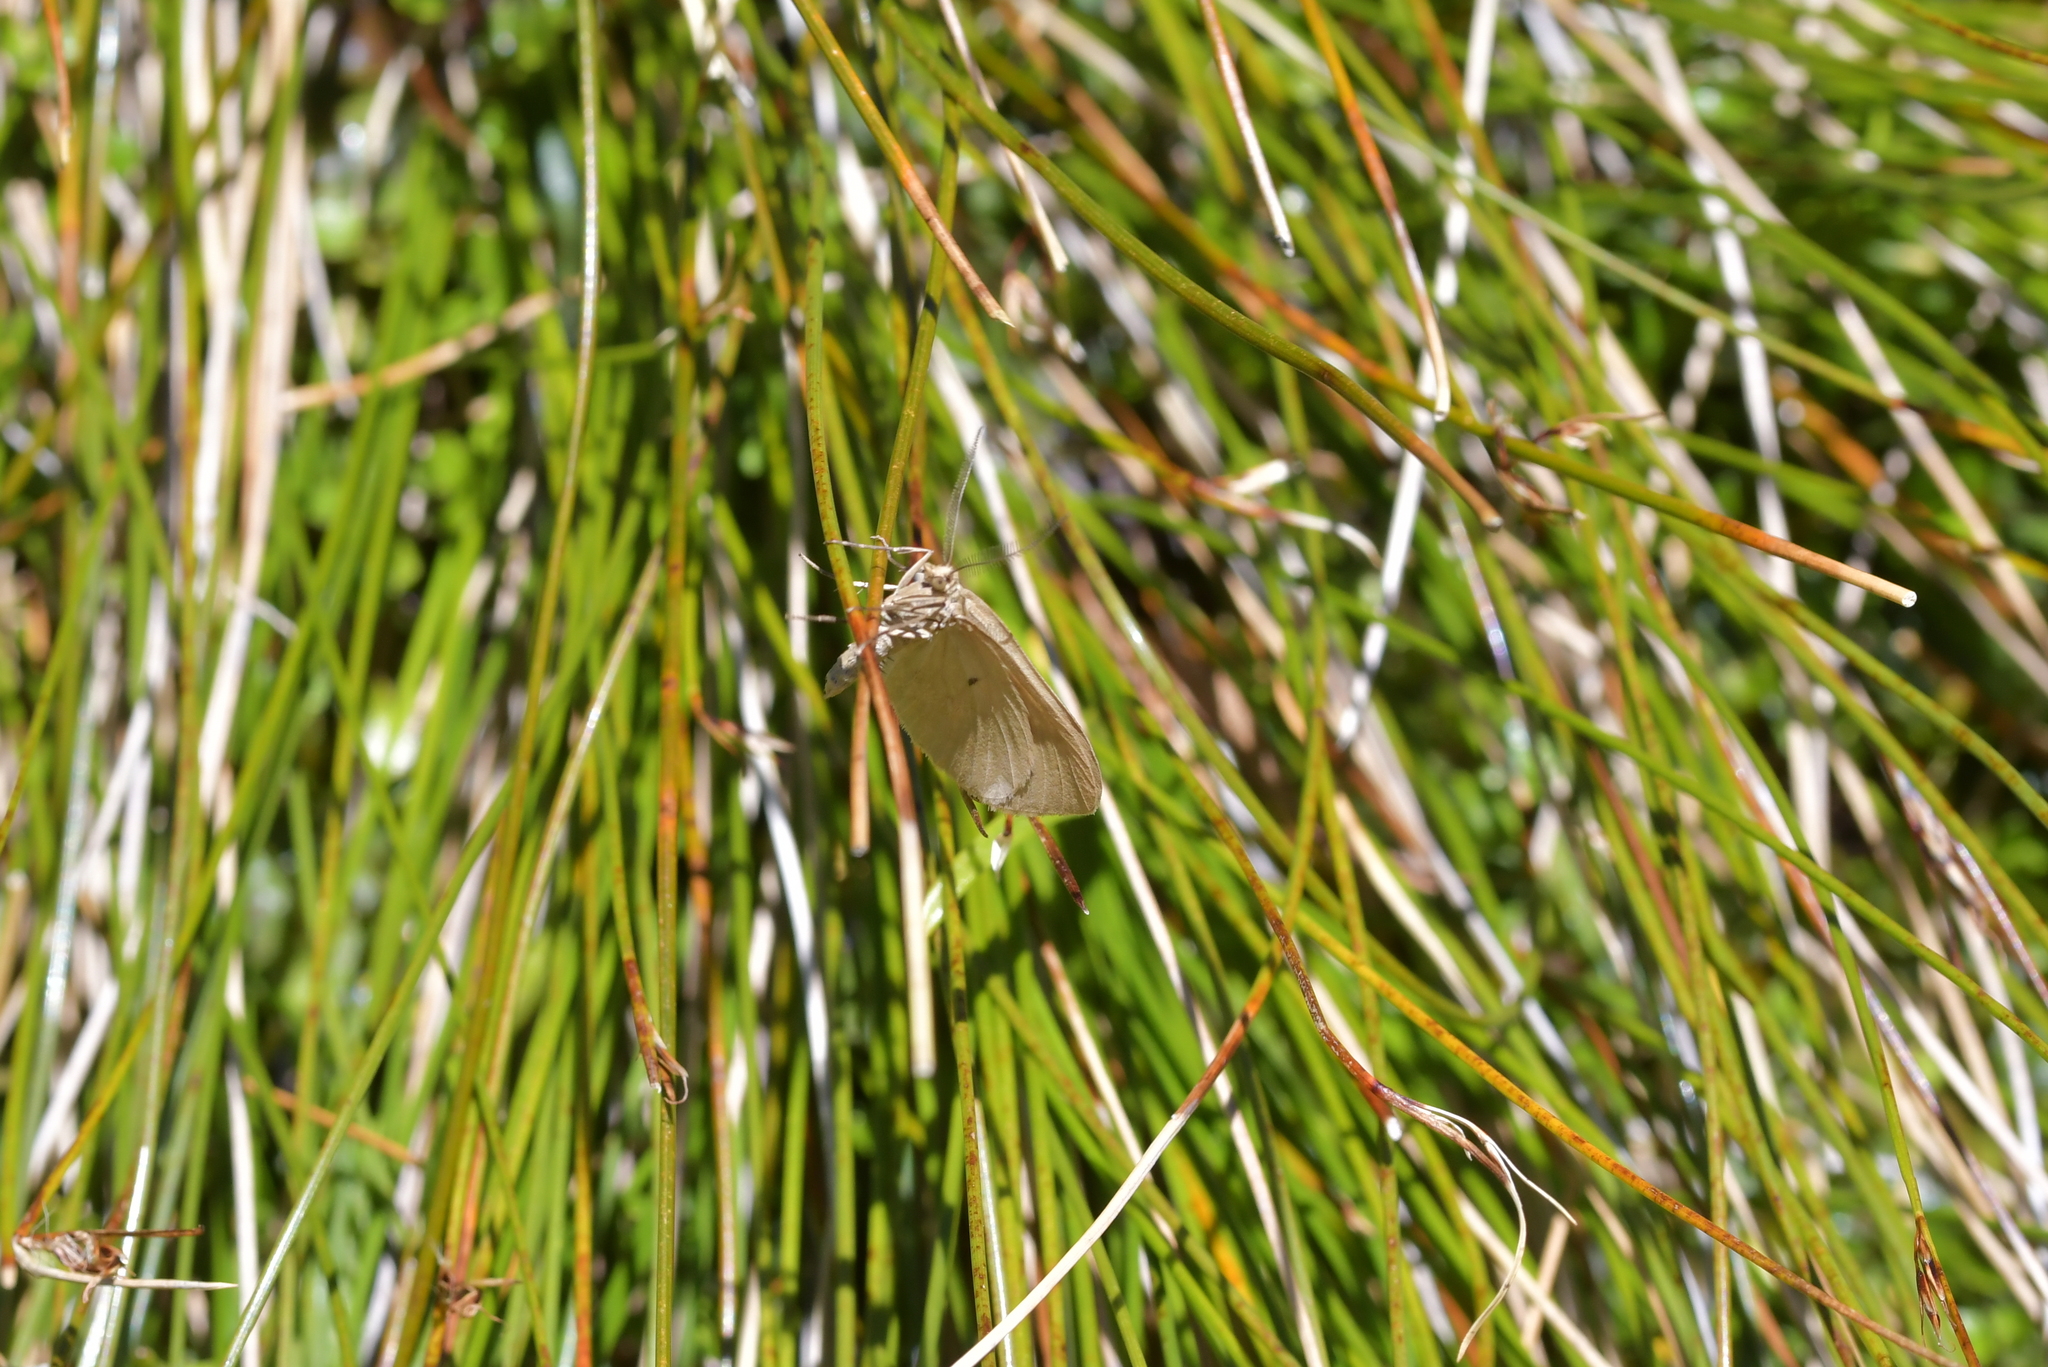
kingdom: Animalia
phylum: Arthropoda
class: Insecta
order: Lepidoptera
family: Geometridae
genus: Asaphodes
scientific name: Asaphodes abrogata
